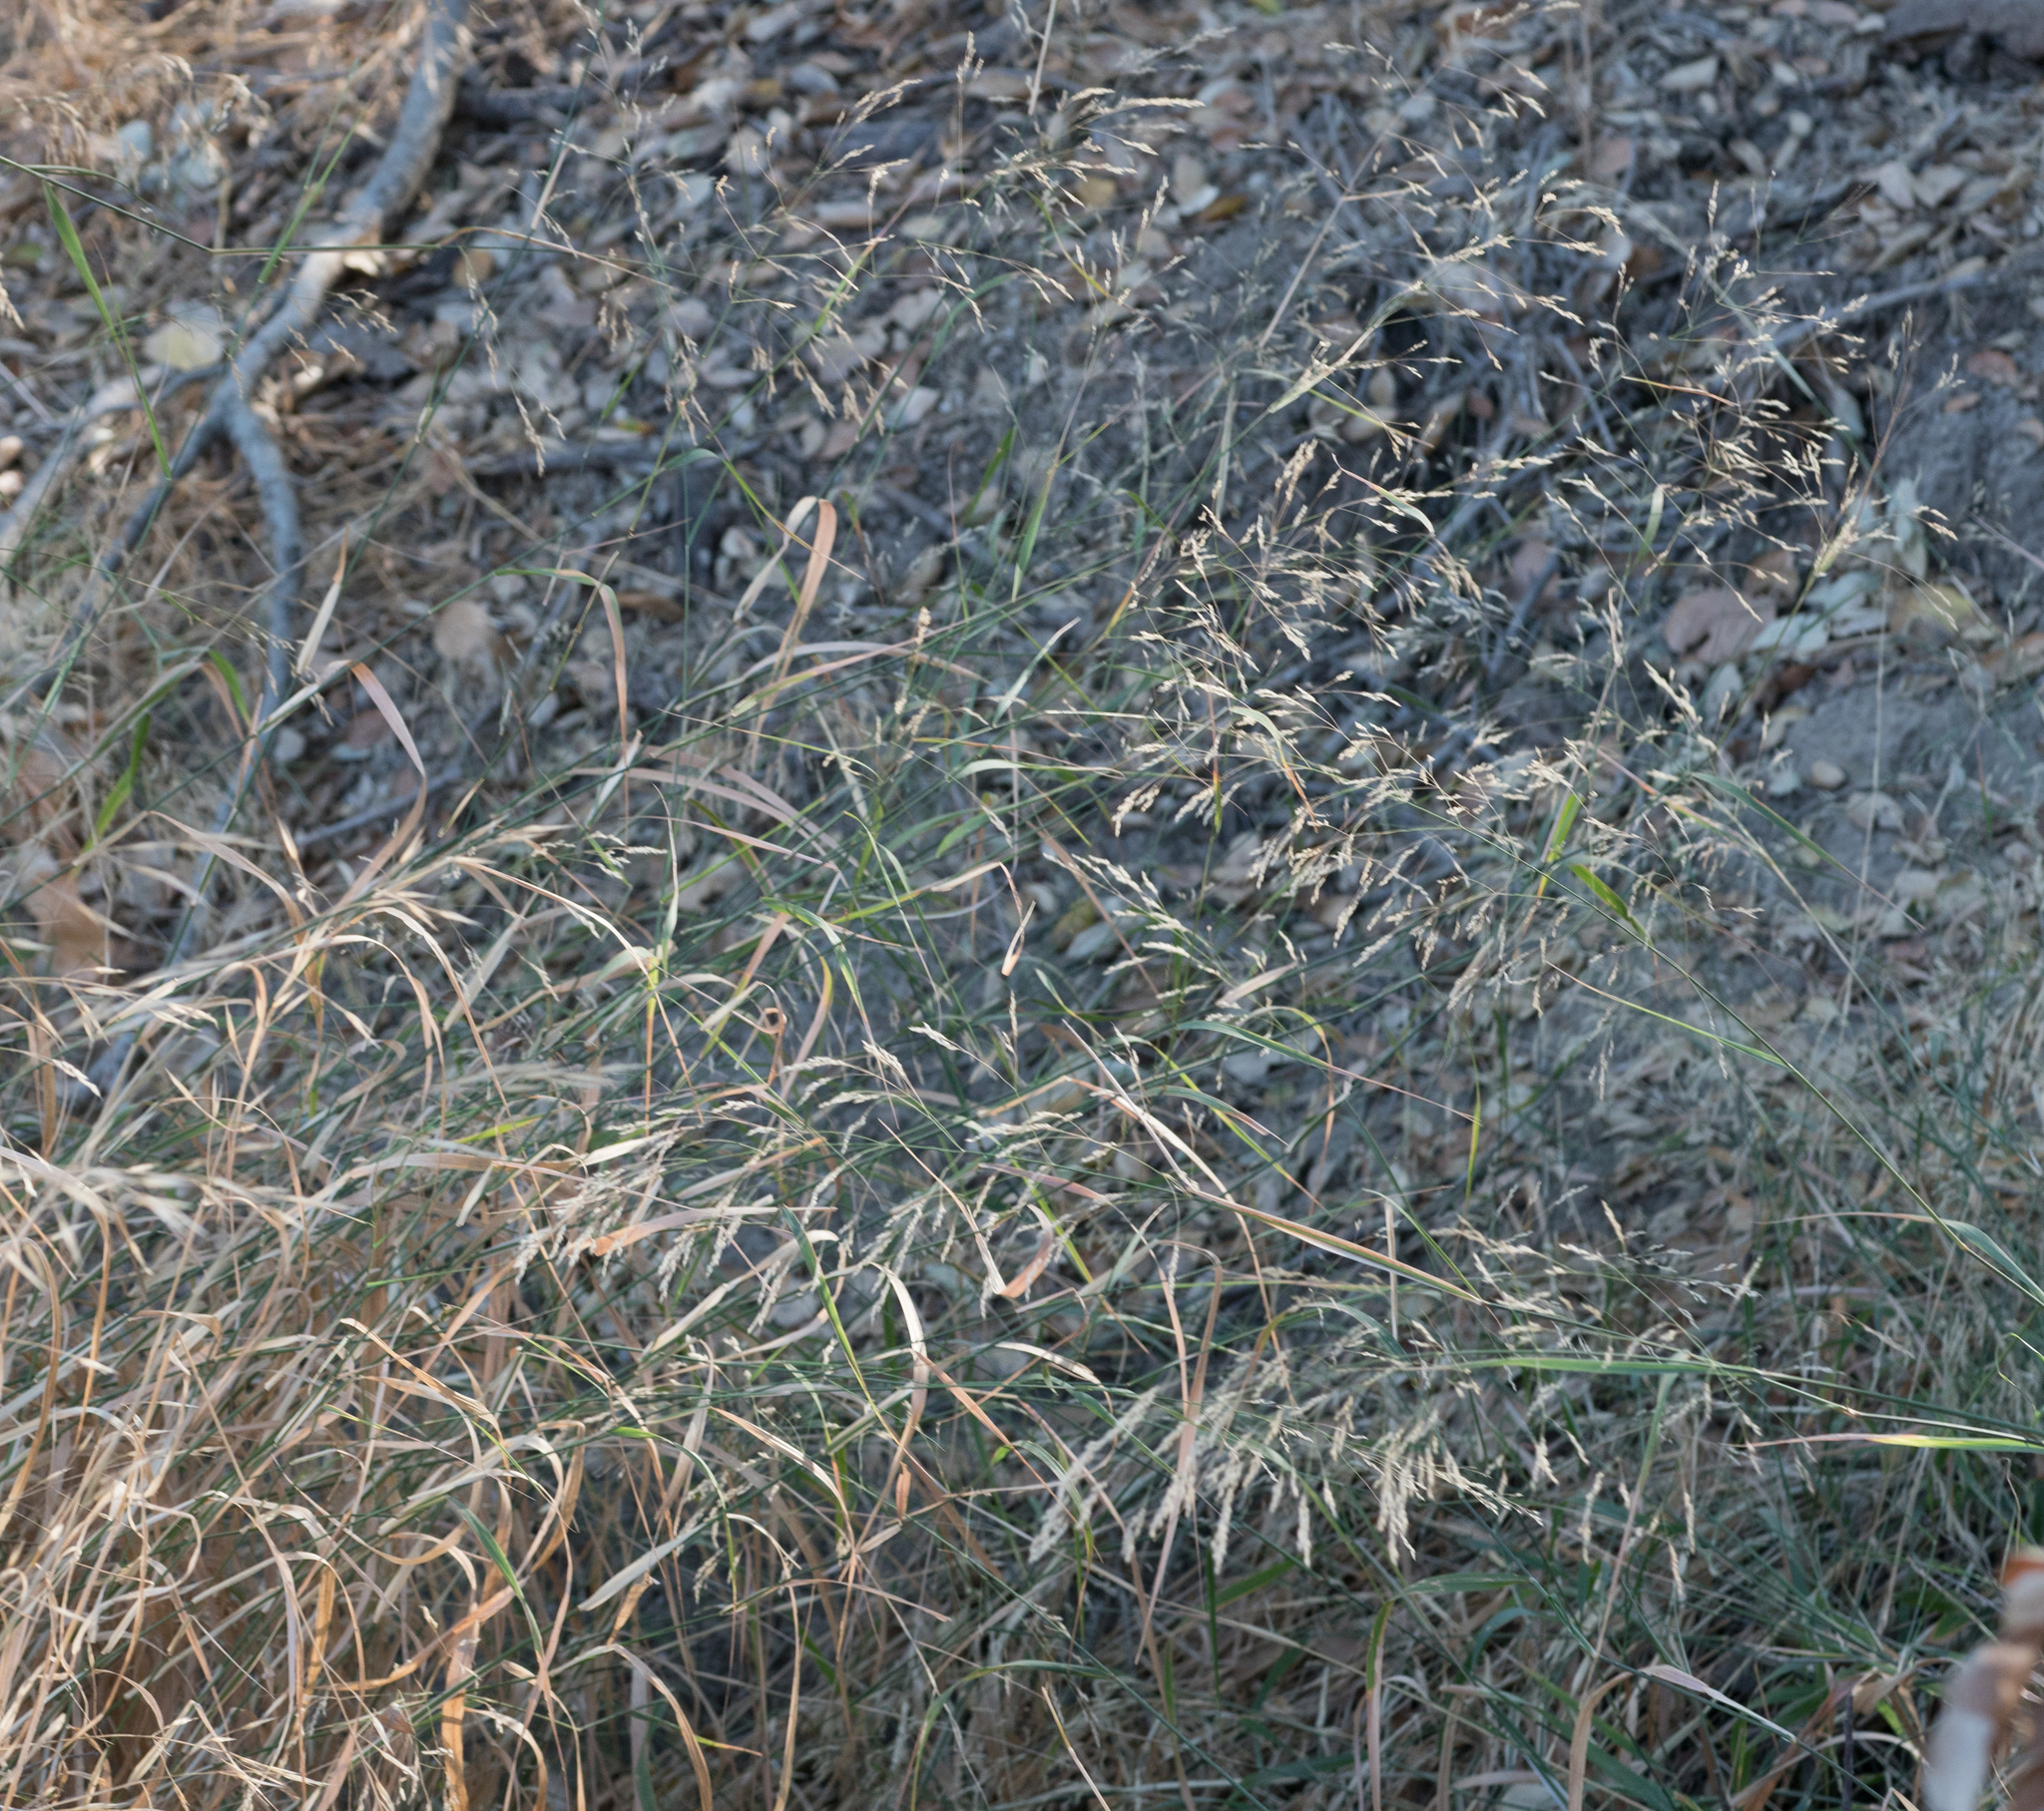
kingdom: Plantae
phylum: Tracheophyta
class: Liliopsida
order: Poales
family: Poaceae
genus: Oloptum
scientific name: Oloptum miliaceum
